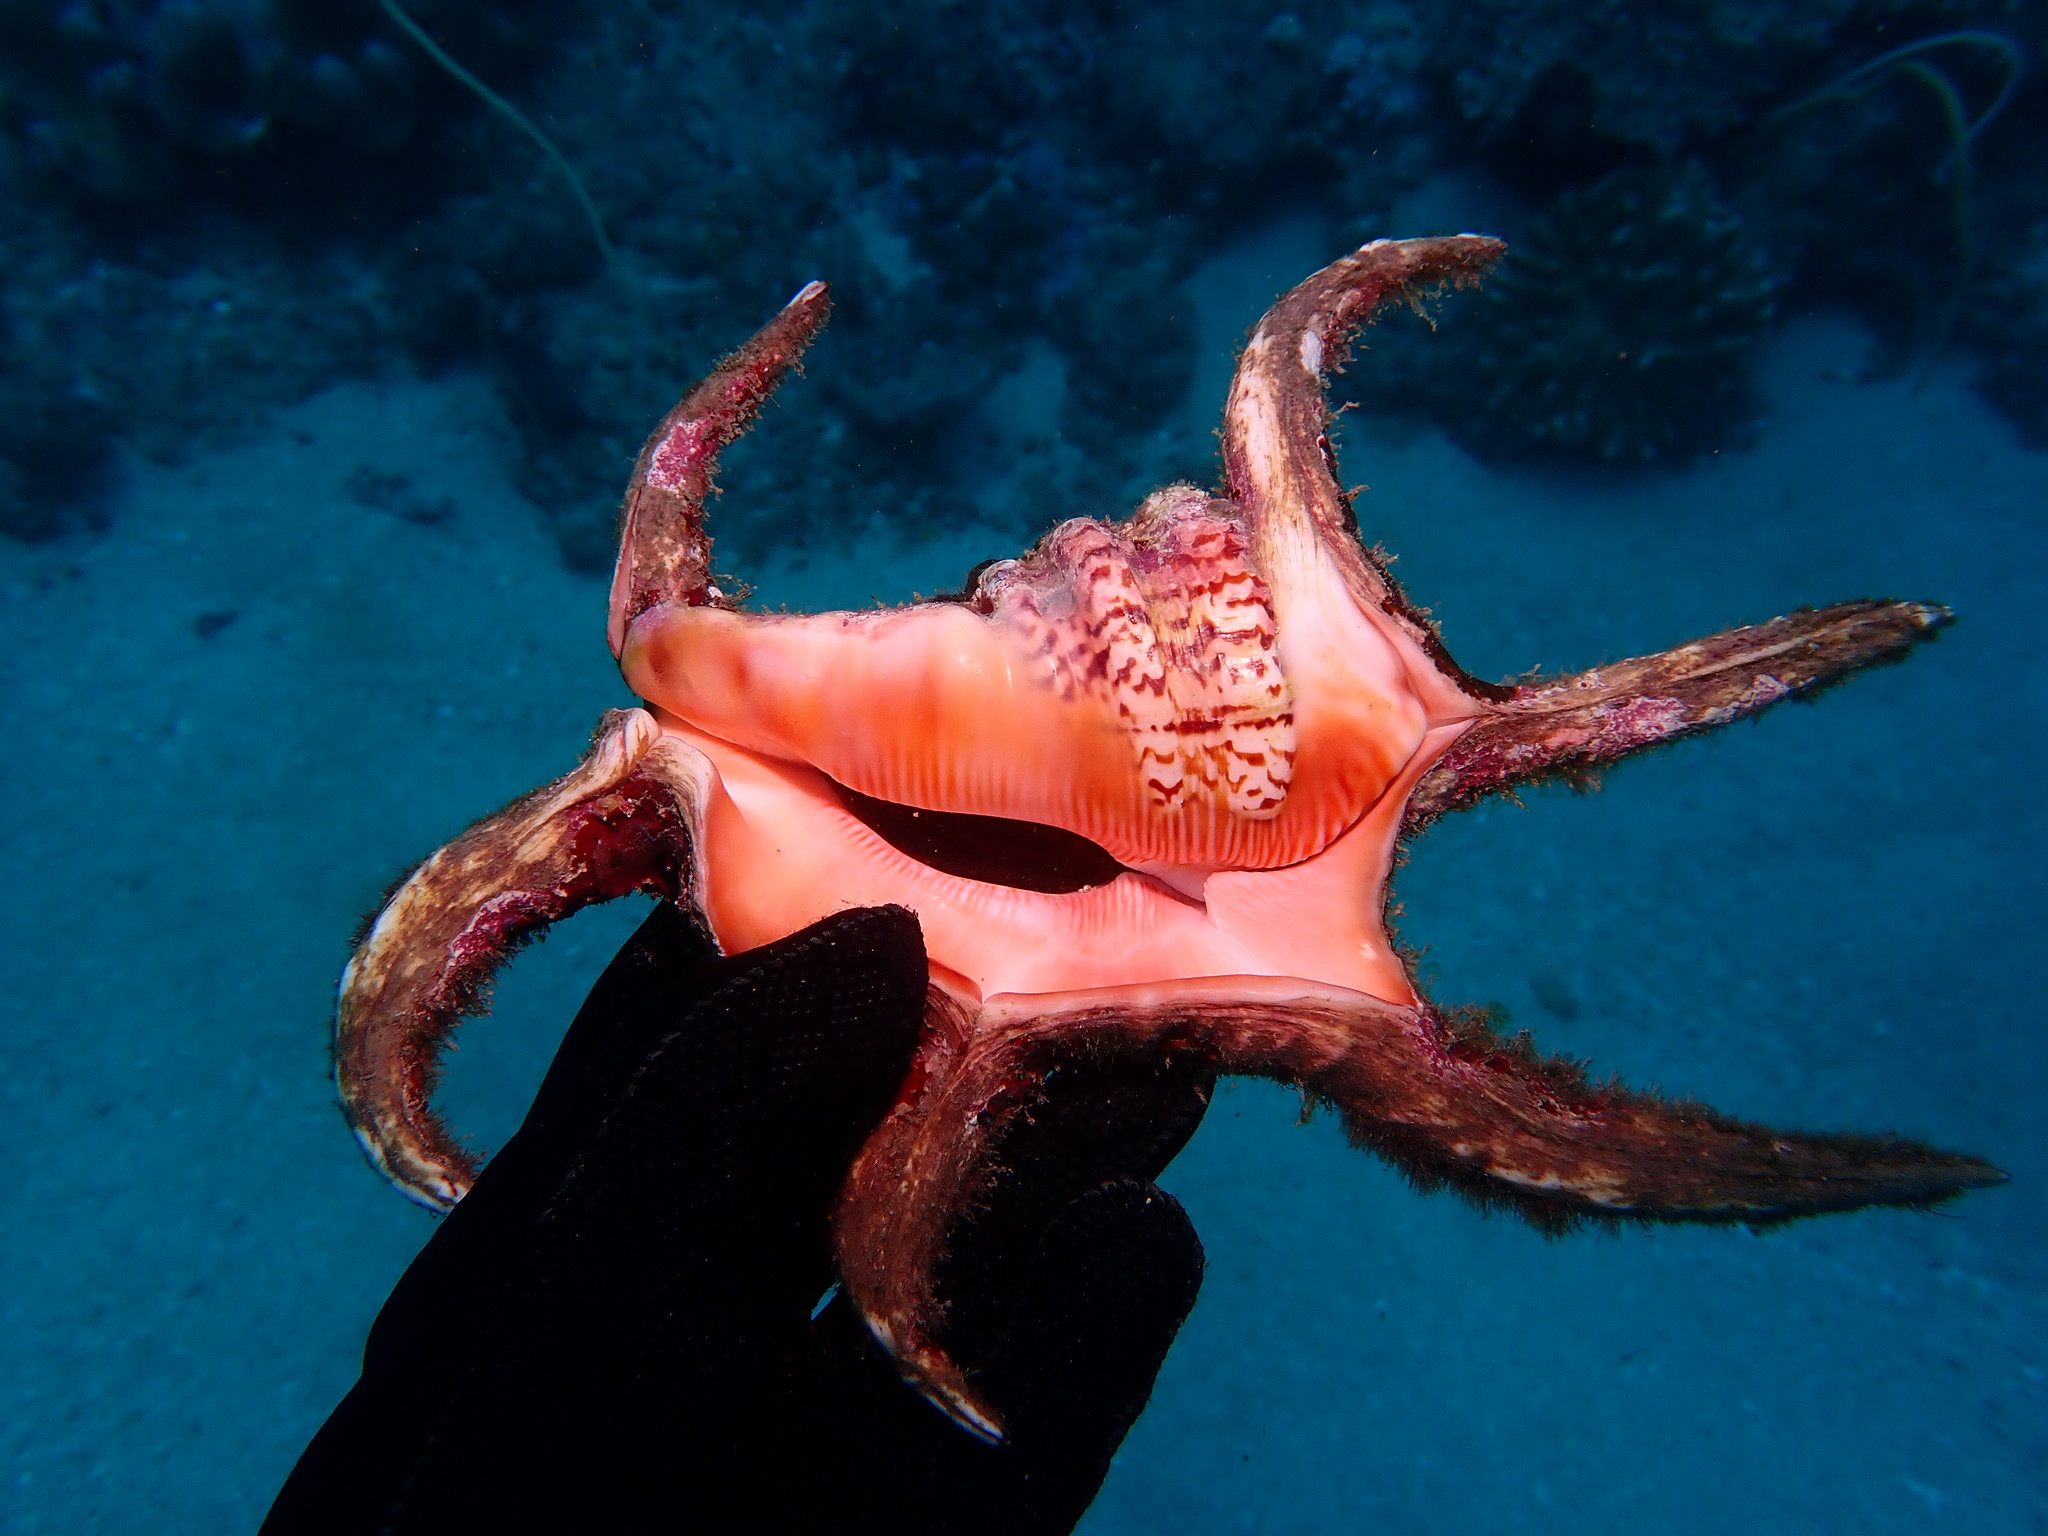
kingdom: Animalia
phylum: Mollusca
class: Gastropoda
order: Littorinimorpha
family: Strombidae
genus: Harpago
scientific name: Harpago chiragra
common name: Chiragra spider conch
